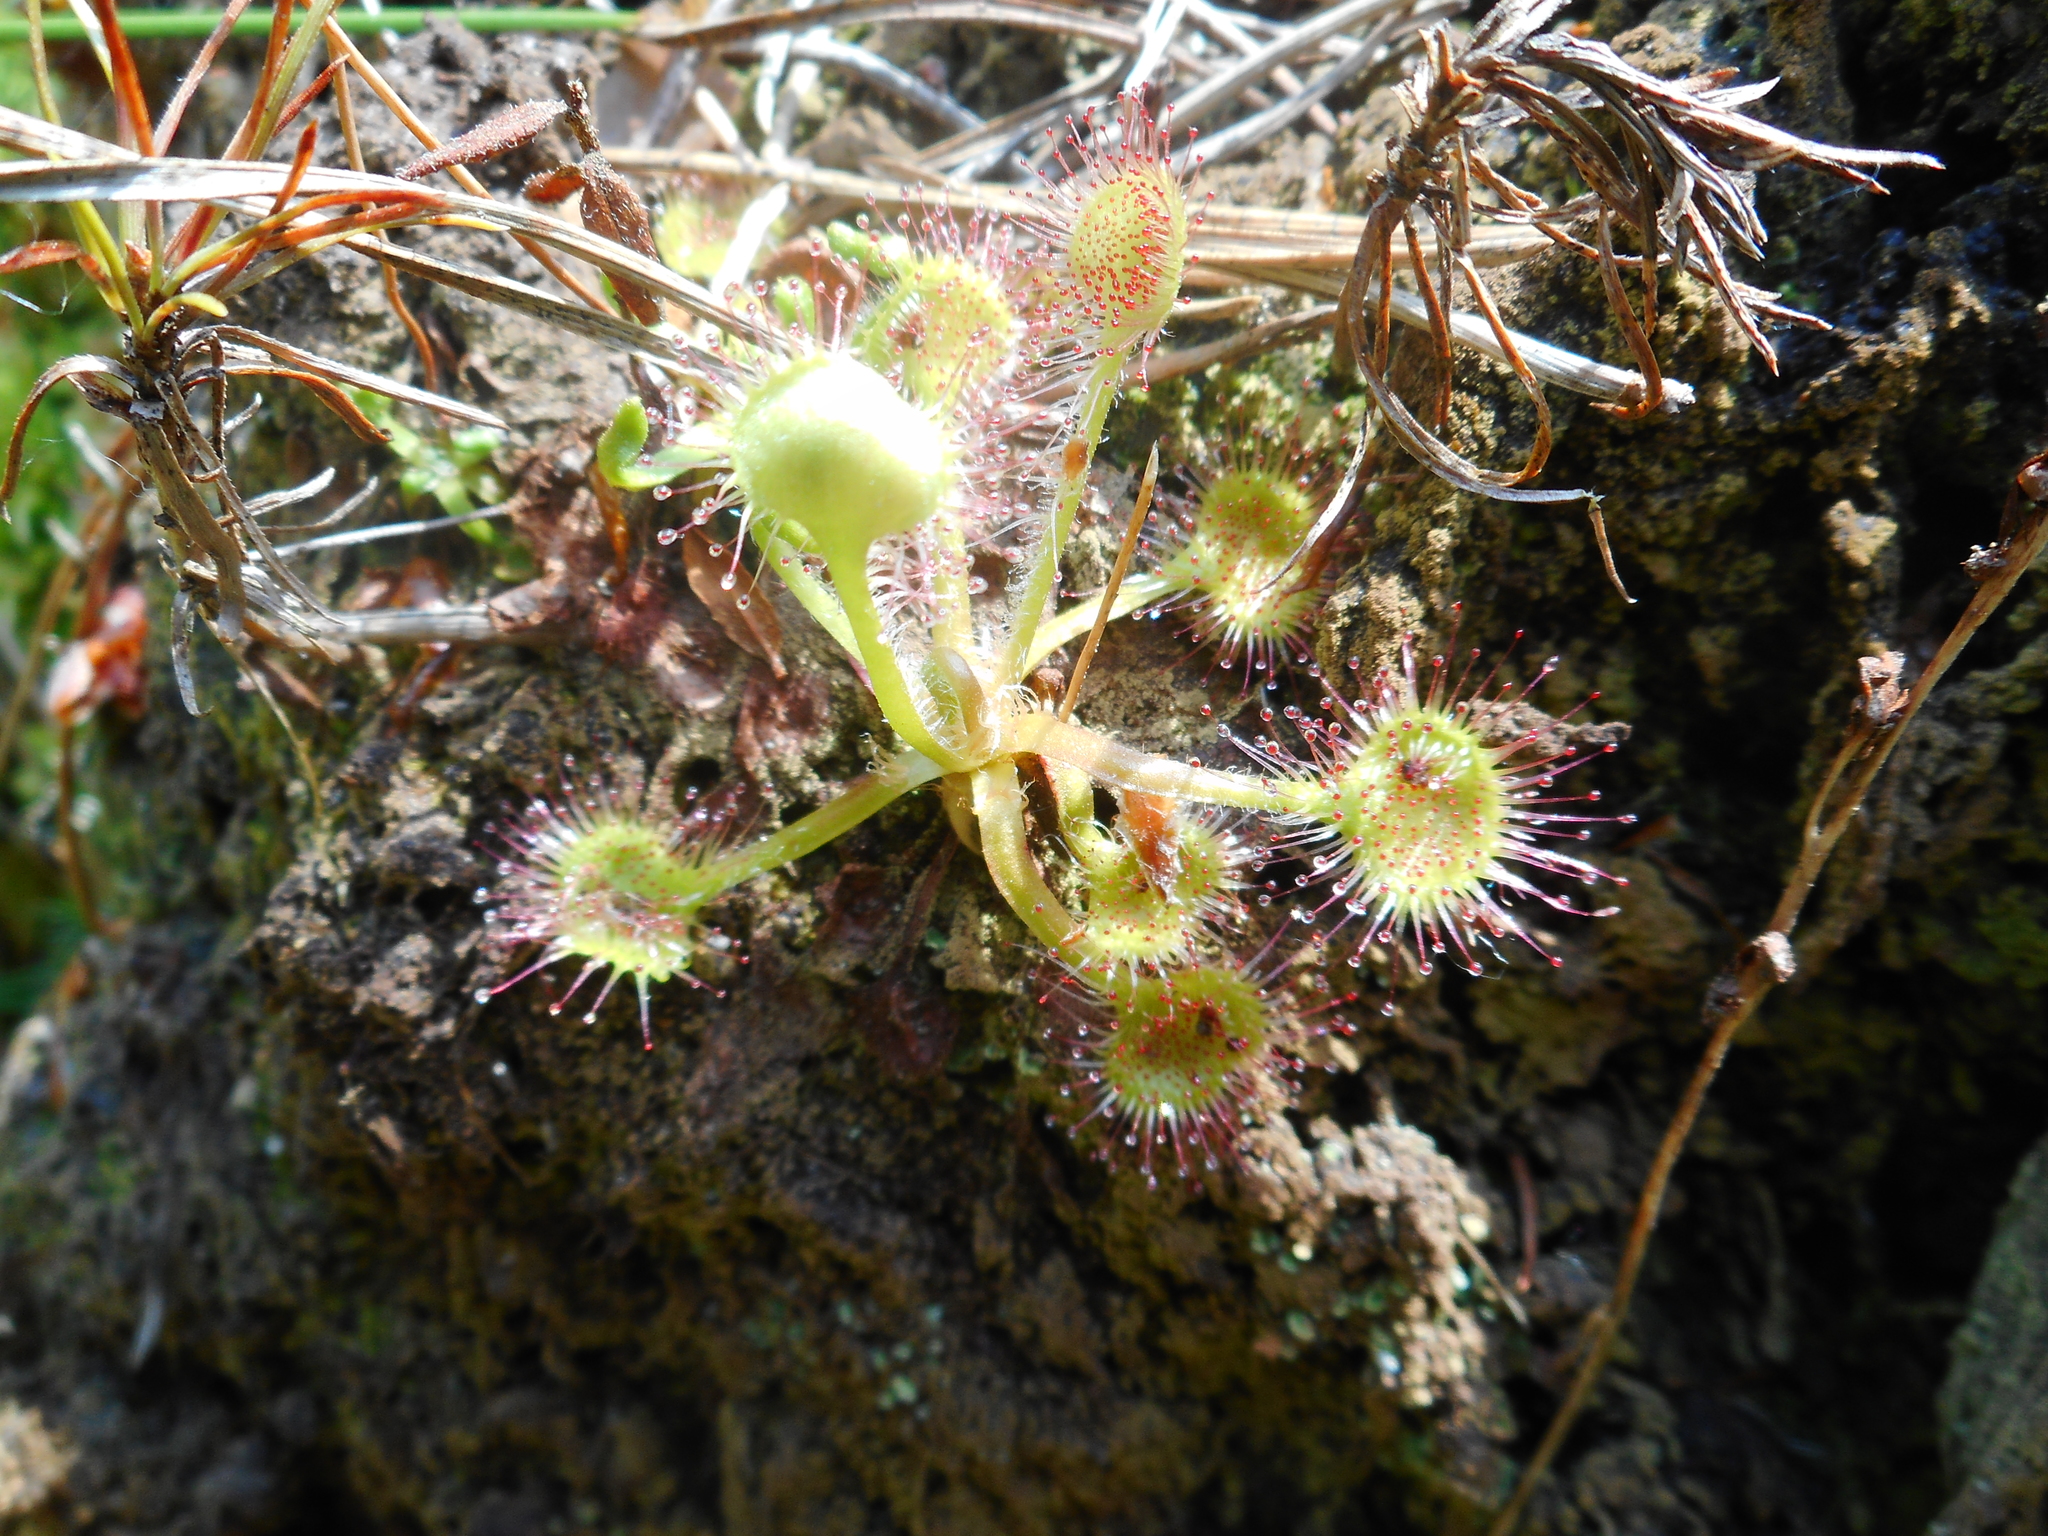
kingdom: Plantae
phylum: Tracheophyta
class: Magnoliopsida
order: Caryophyllales
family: Droseraceae
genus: Drosera
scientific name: Drosera rotundifolia
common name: Round-leaved sundew
